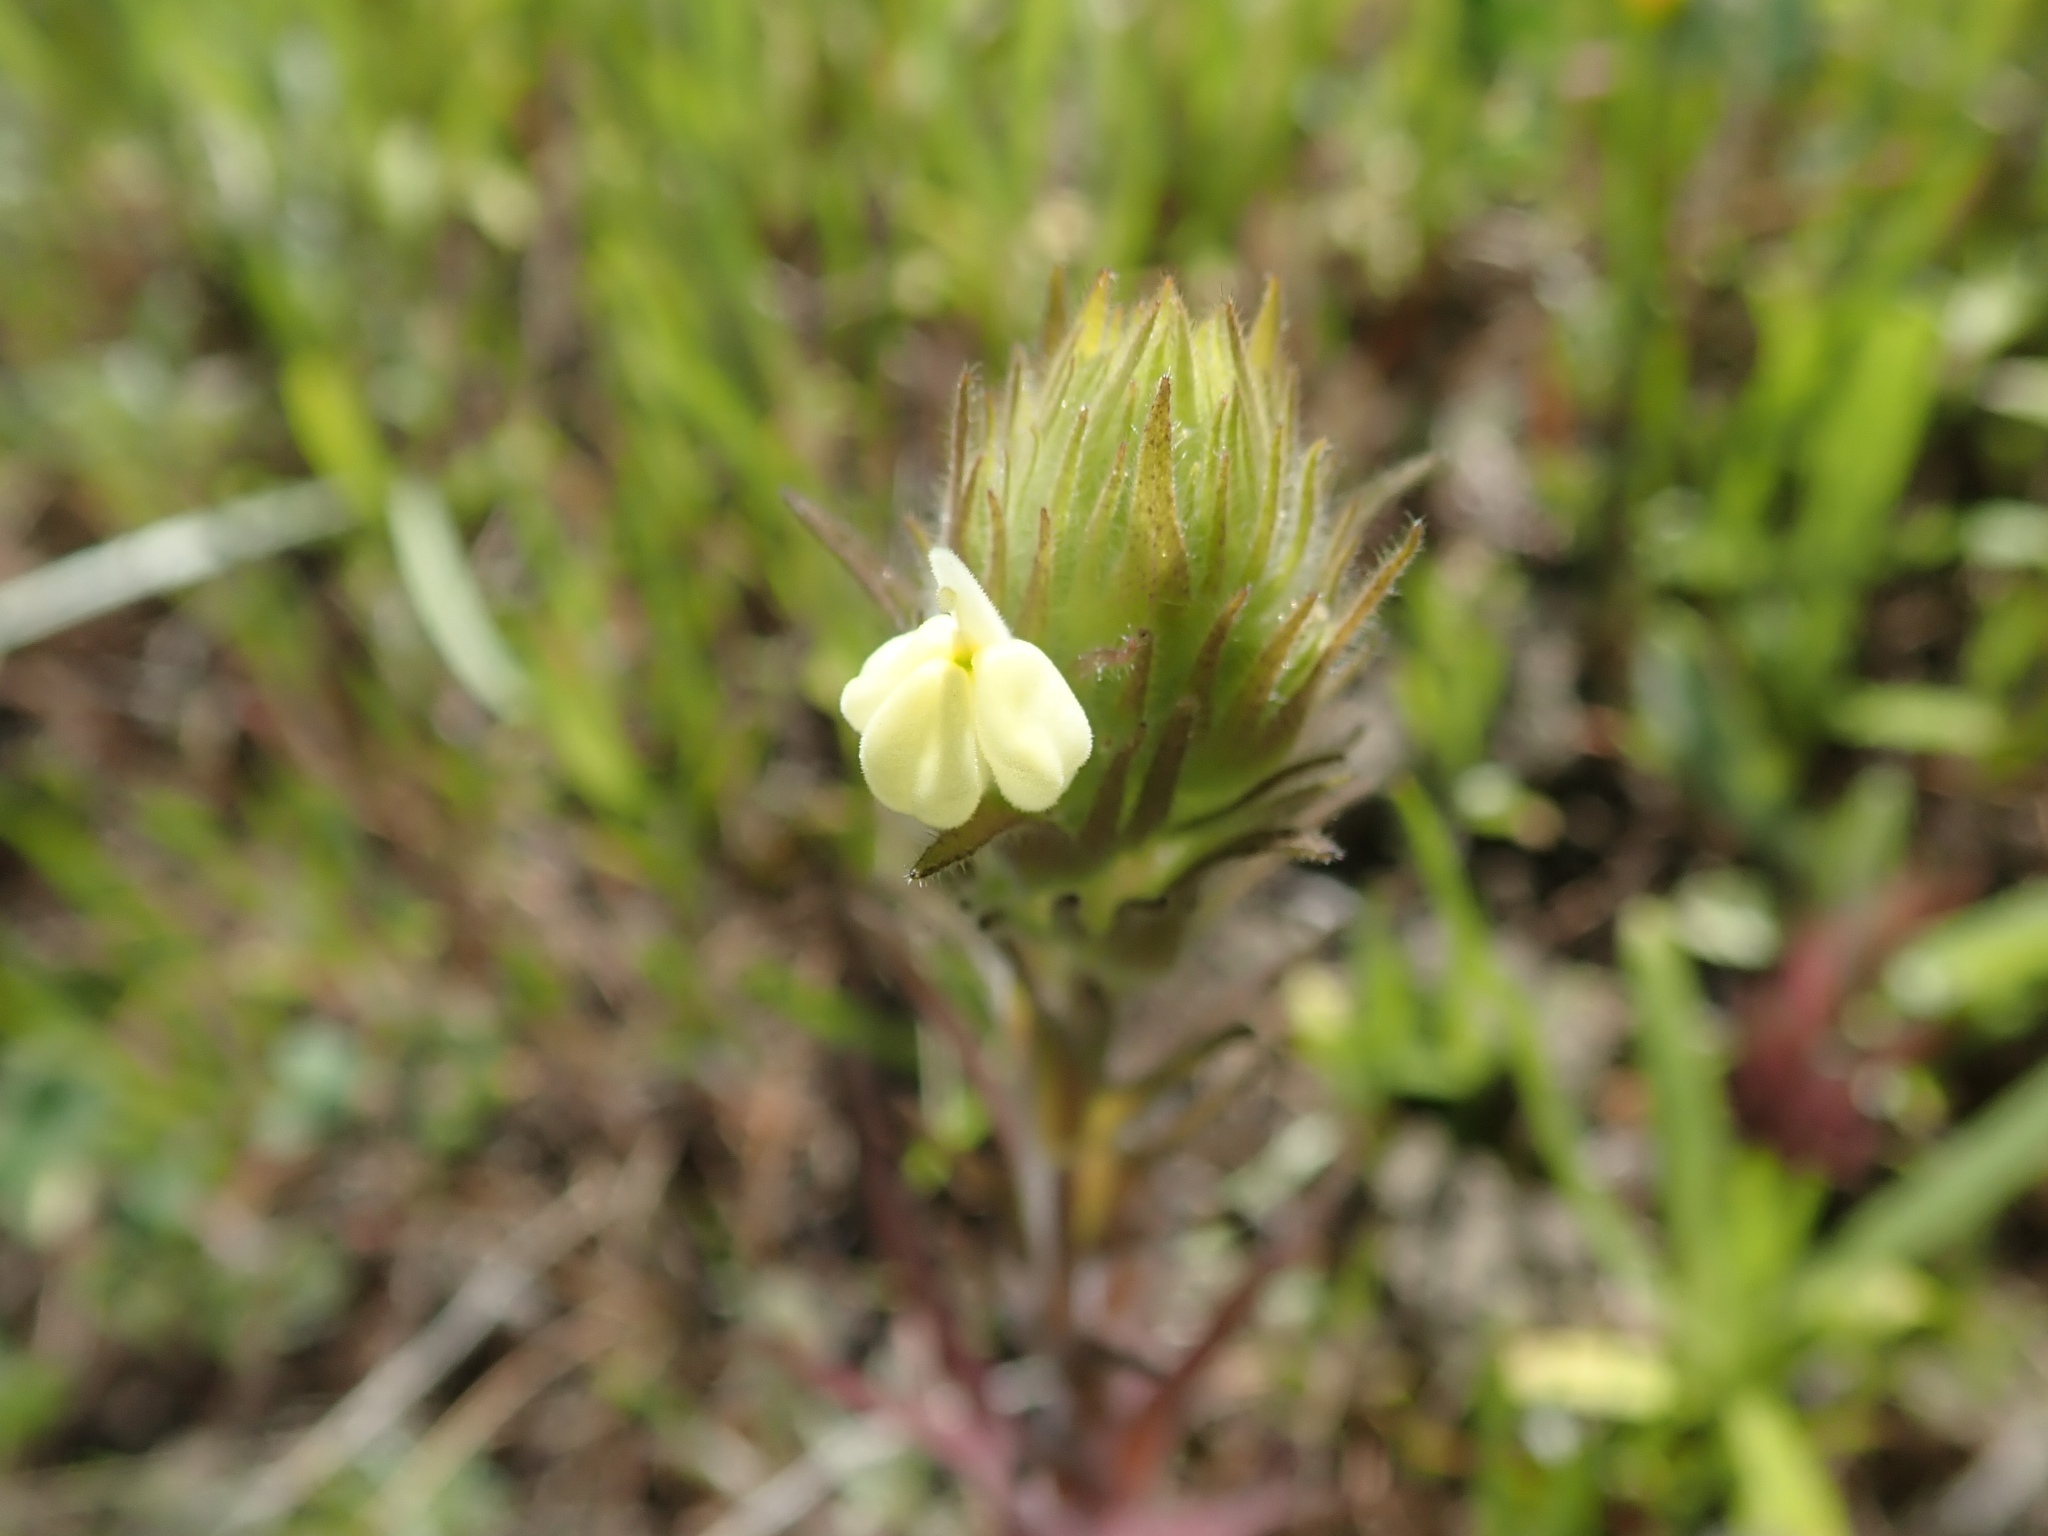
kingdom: Plantae
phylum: Tracheophyta
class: Magnoliopsida
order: Lamiales
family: Orobanchaceae
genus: Castilleja
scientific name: Castilleja rubicundula
